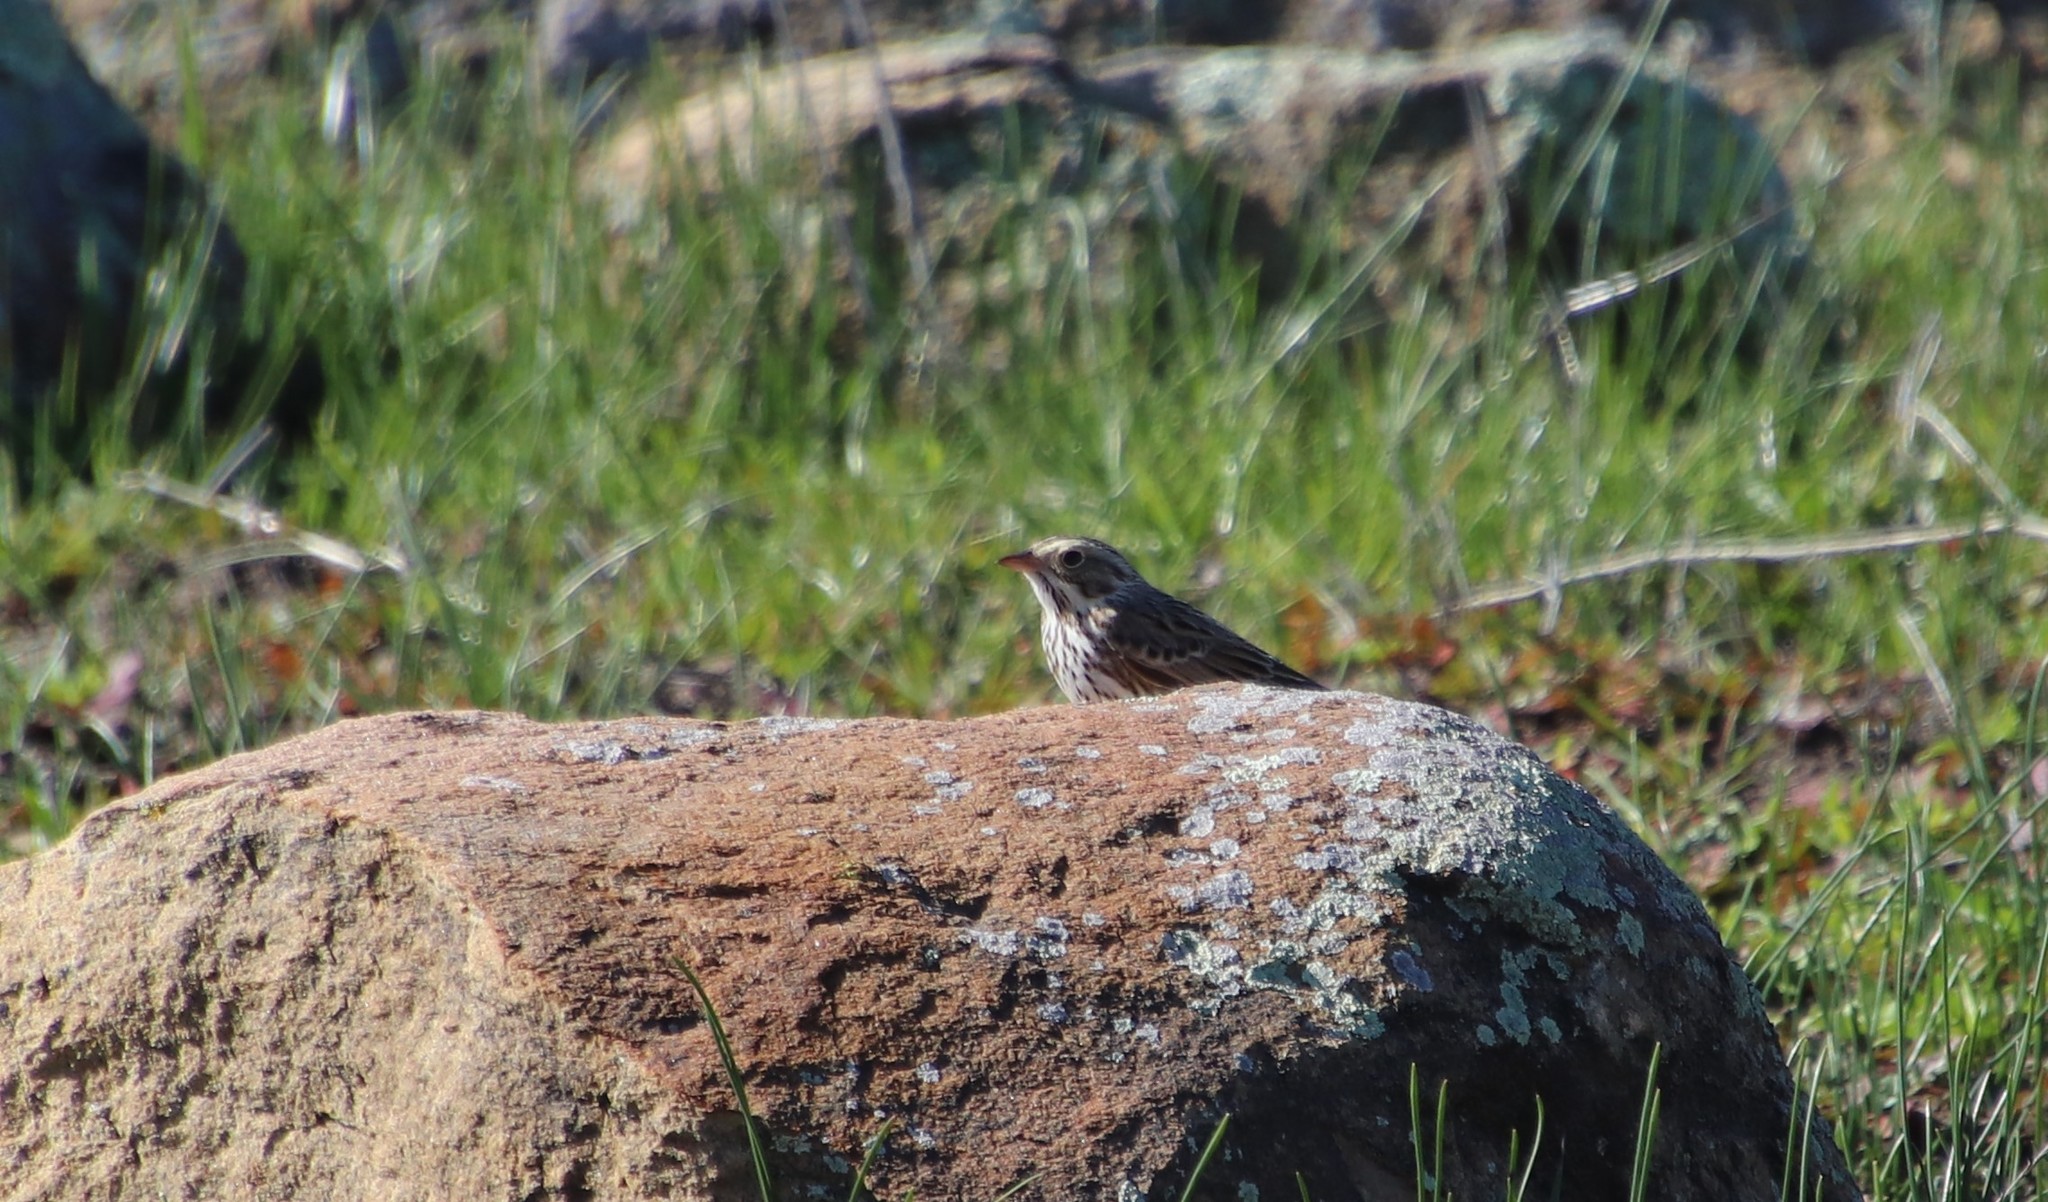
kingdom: Animalia
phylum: Chordata
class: Aves
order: Passeriformes
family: Passerellidae
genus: Passerculus
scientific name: Passerculus sandwichensis
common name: Savannah sparrow
